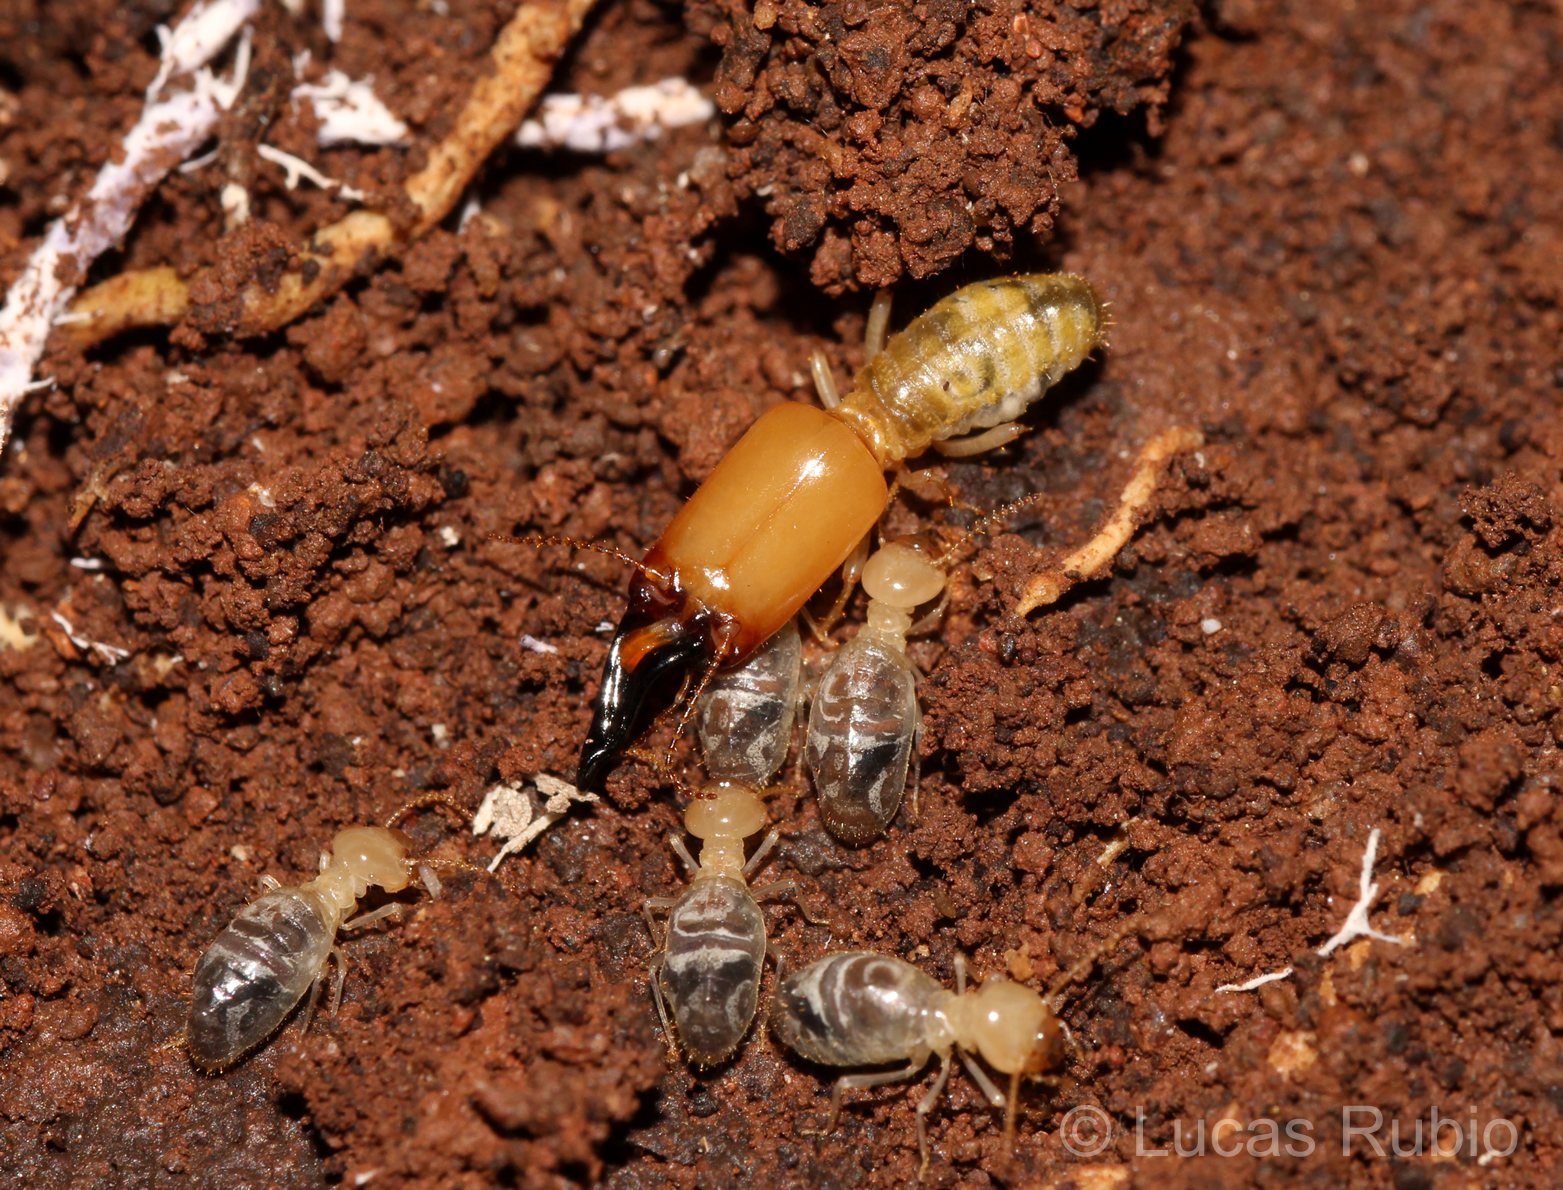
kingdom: Animalia
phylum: Arthropoda
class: Insecta
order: Blattodea
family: Termitidae
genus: Neocapritermes
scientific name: Neocapritermes opacus
